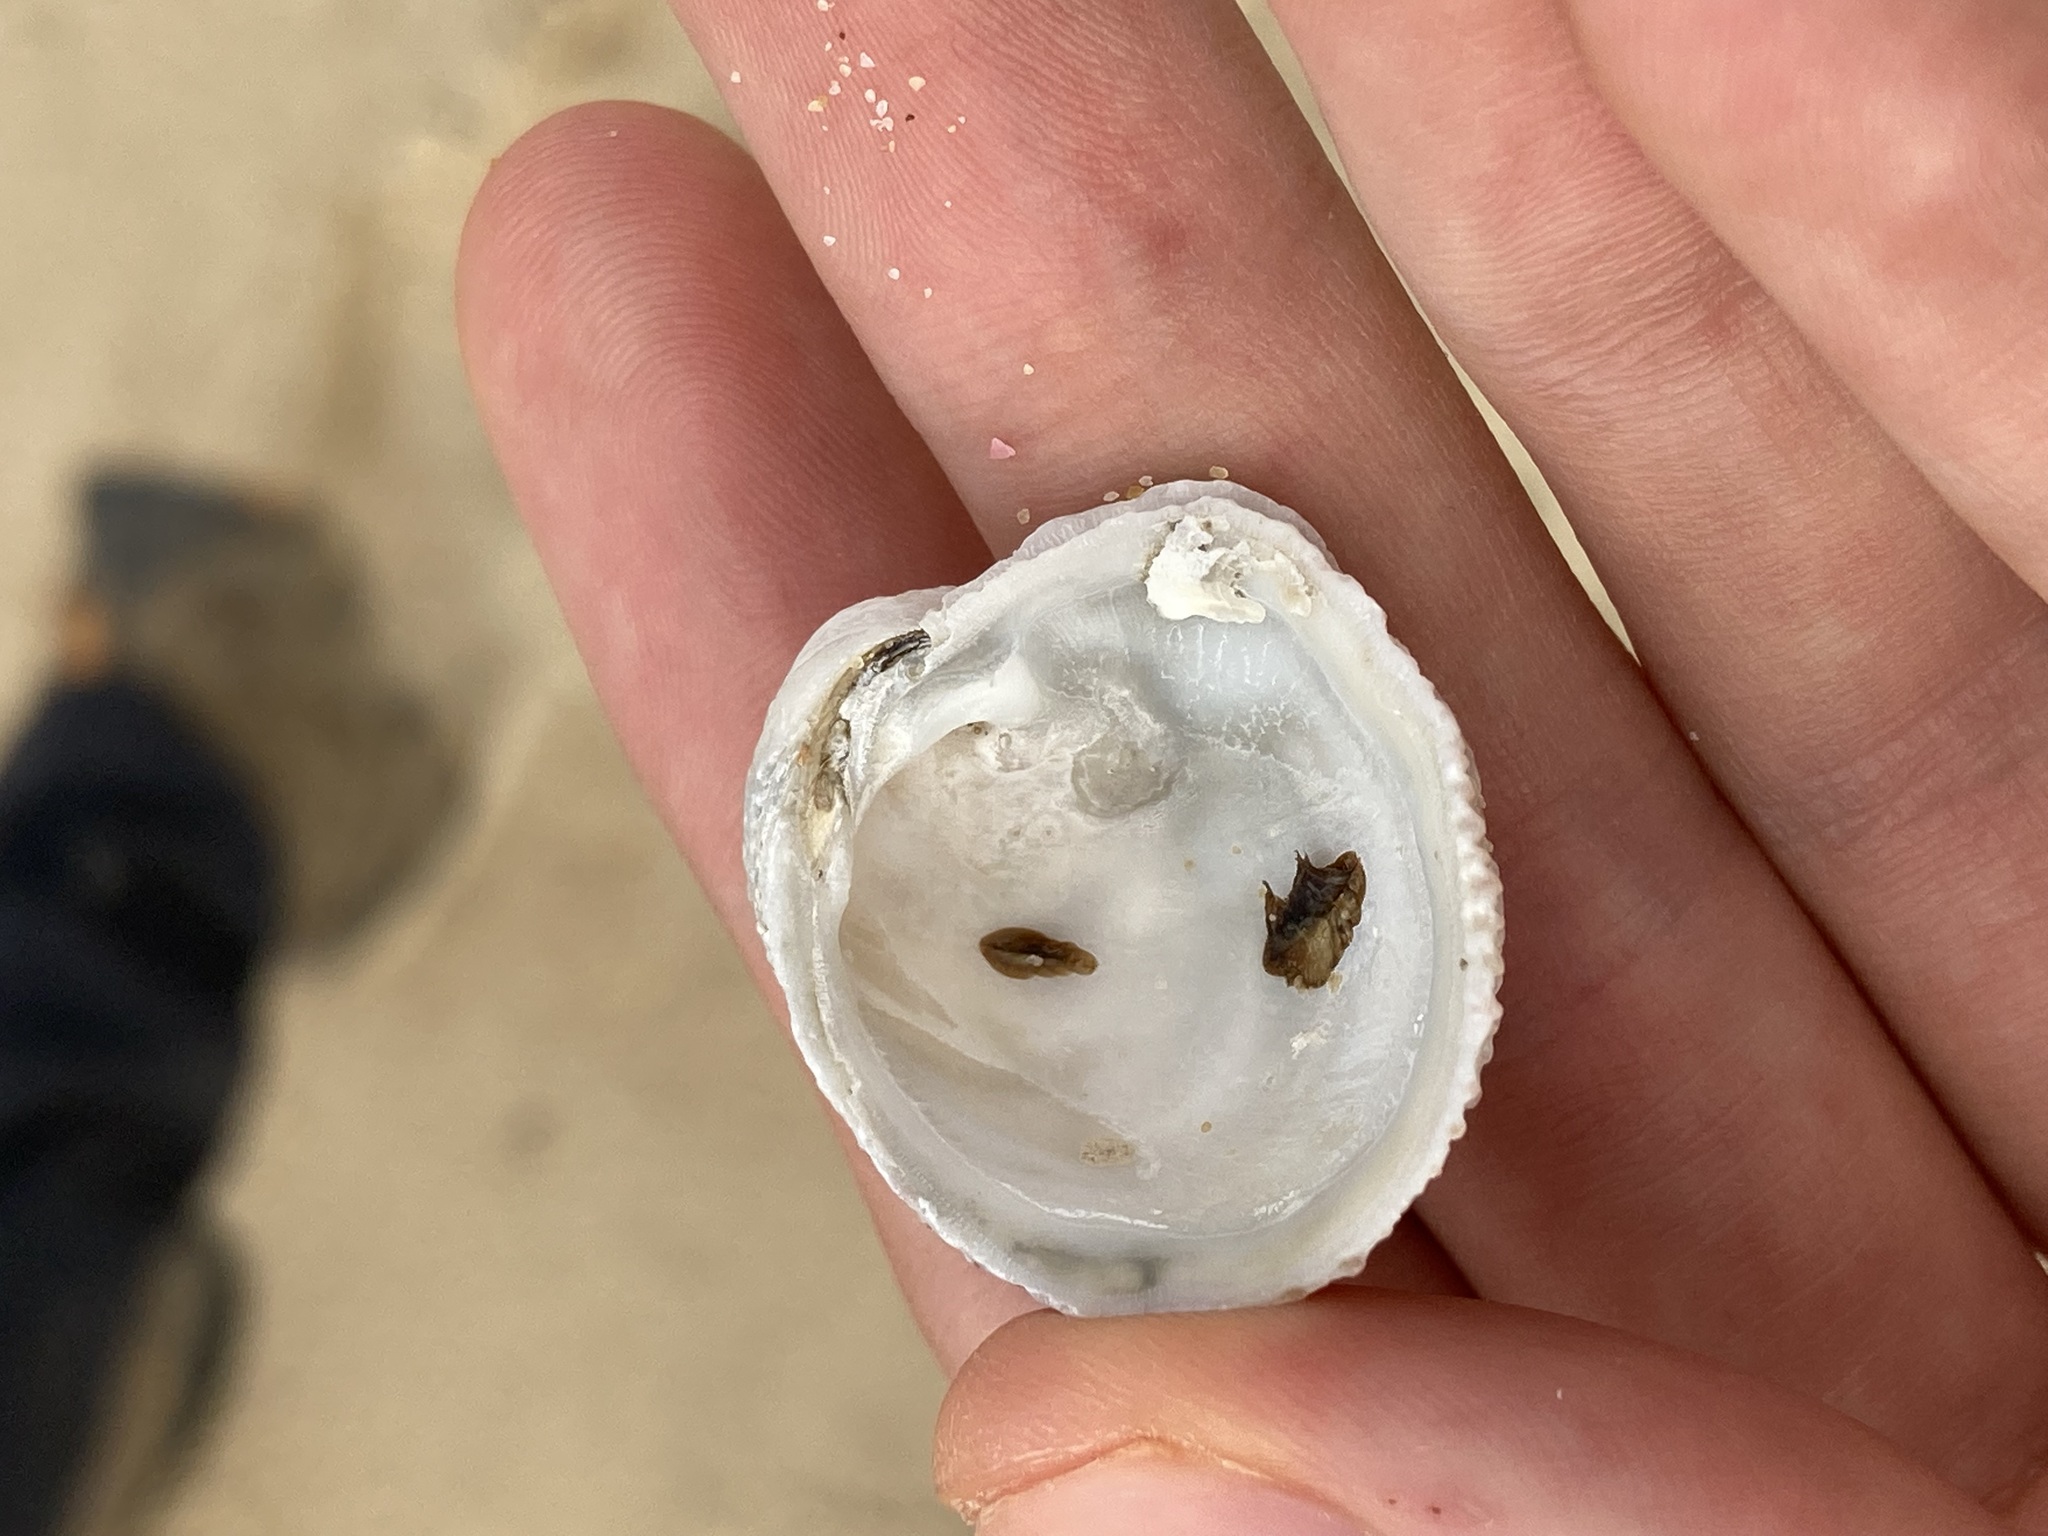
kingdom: Animalia
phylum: Mollusca
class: Bivalvia
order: Venerida
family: Chamidae
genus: Chama
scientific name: Chama asperella
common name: Mollusca
